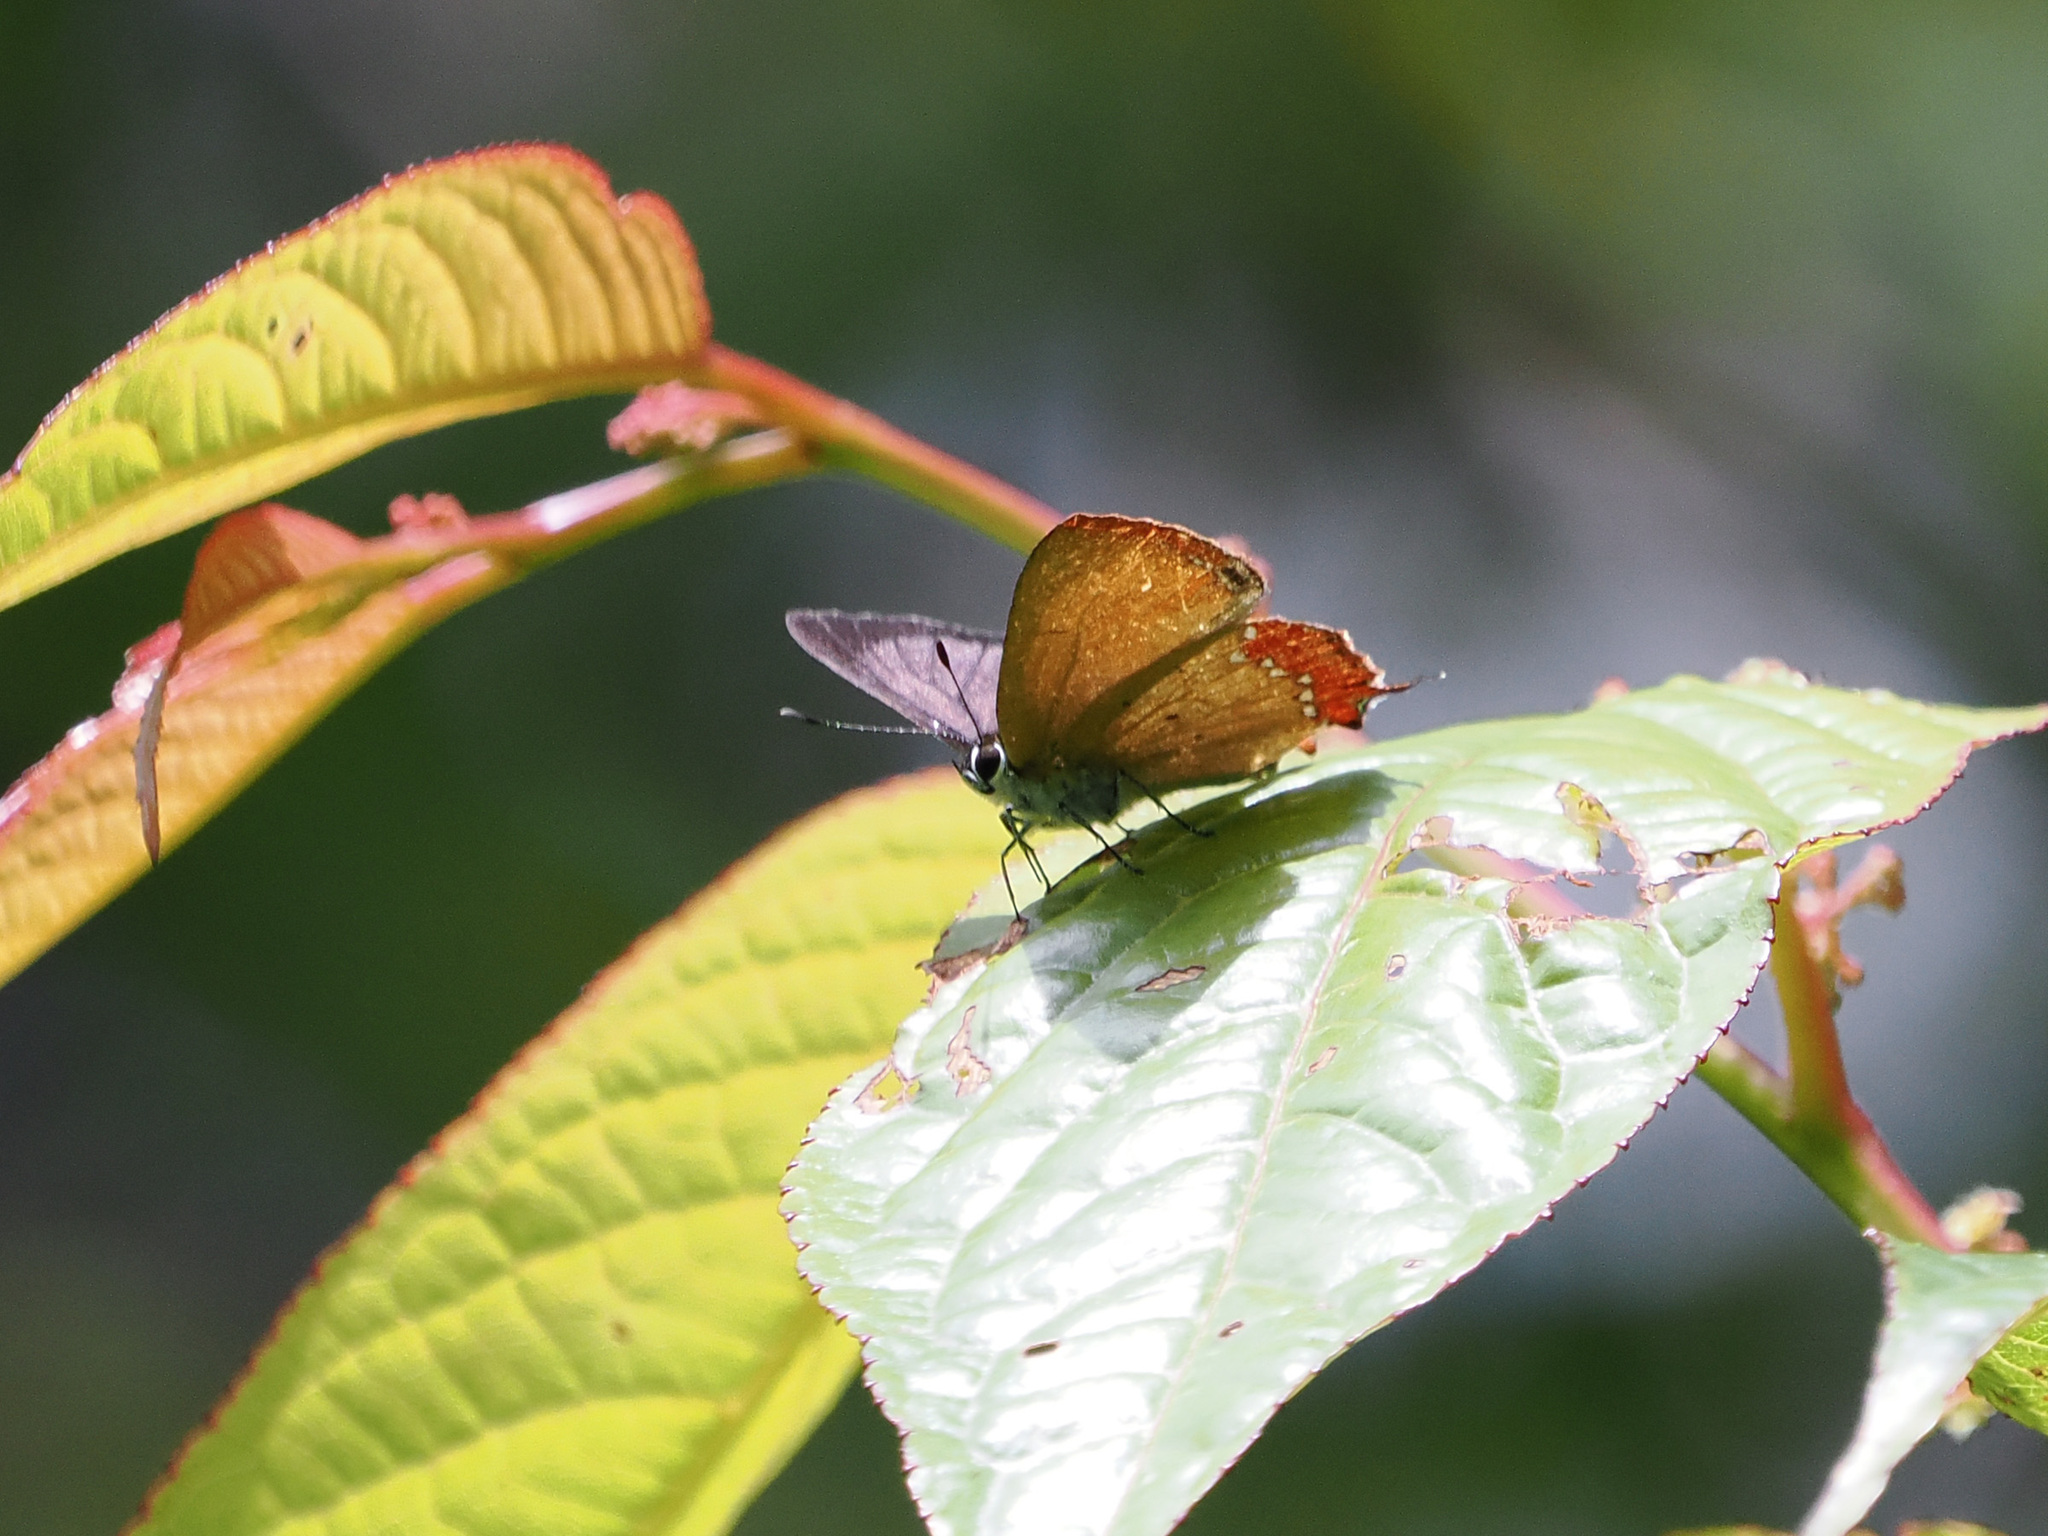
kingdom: Animalia
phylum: Arthropoda
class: Insecta
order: Lepidoptera
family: Lycaenidae
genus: Heliophorus
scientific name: Heliophorus ila
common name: Restricted purple sapphire
